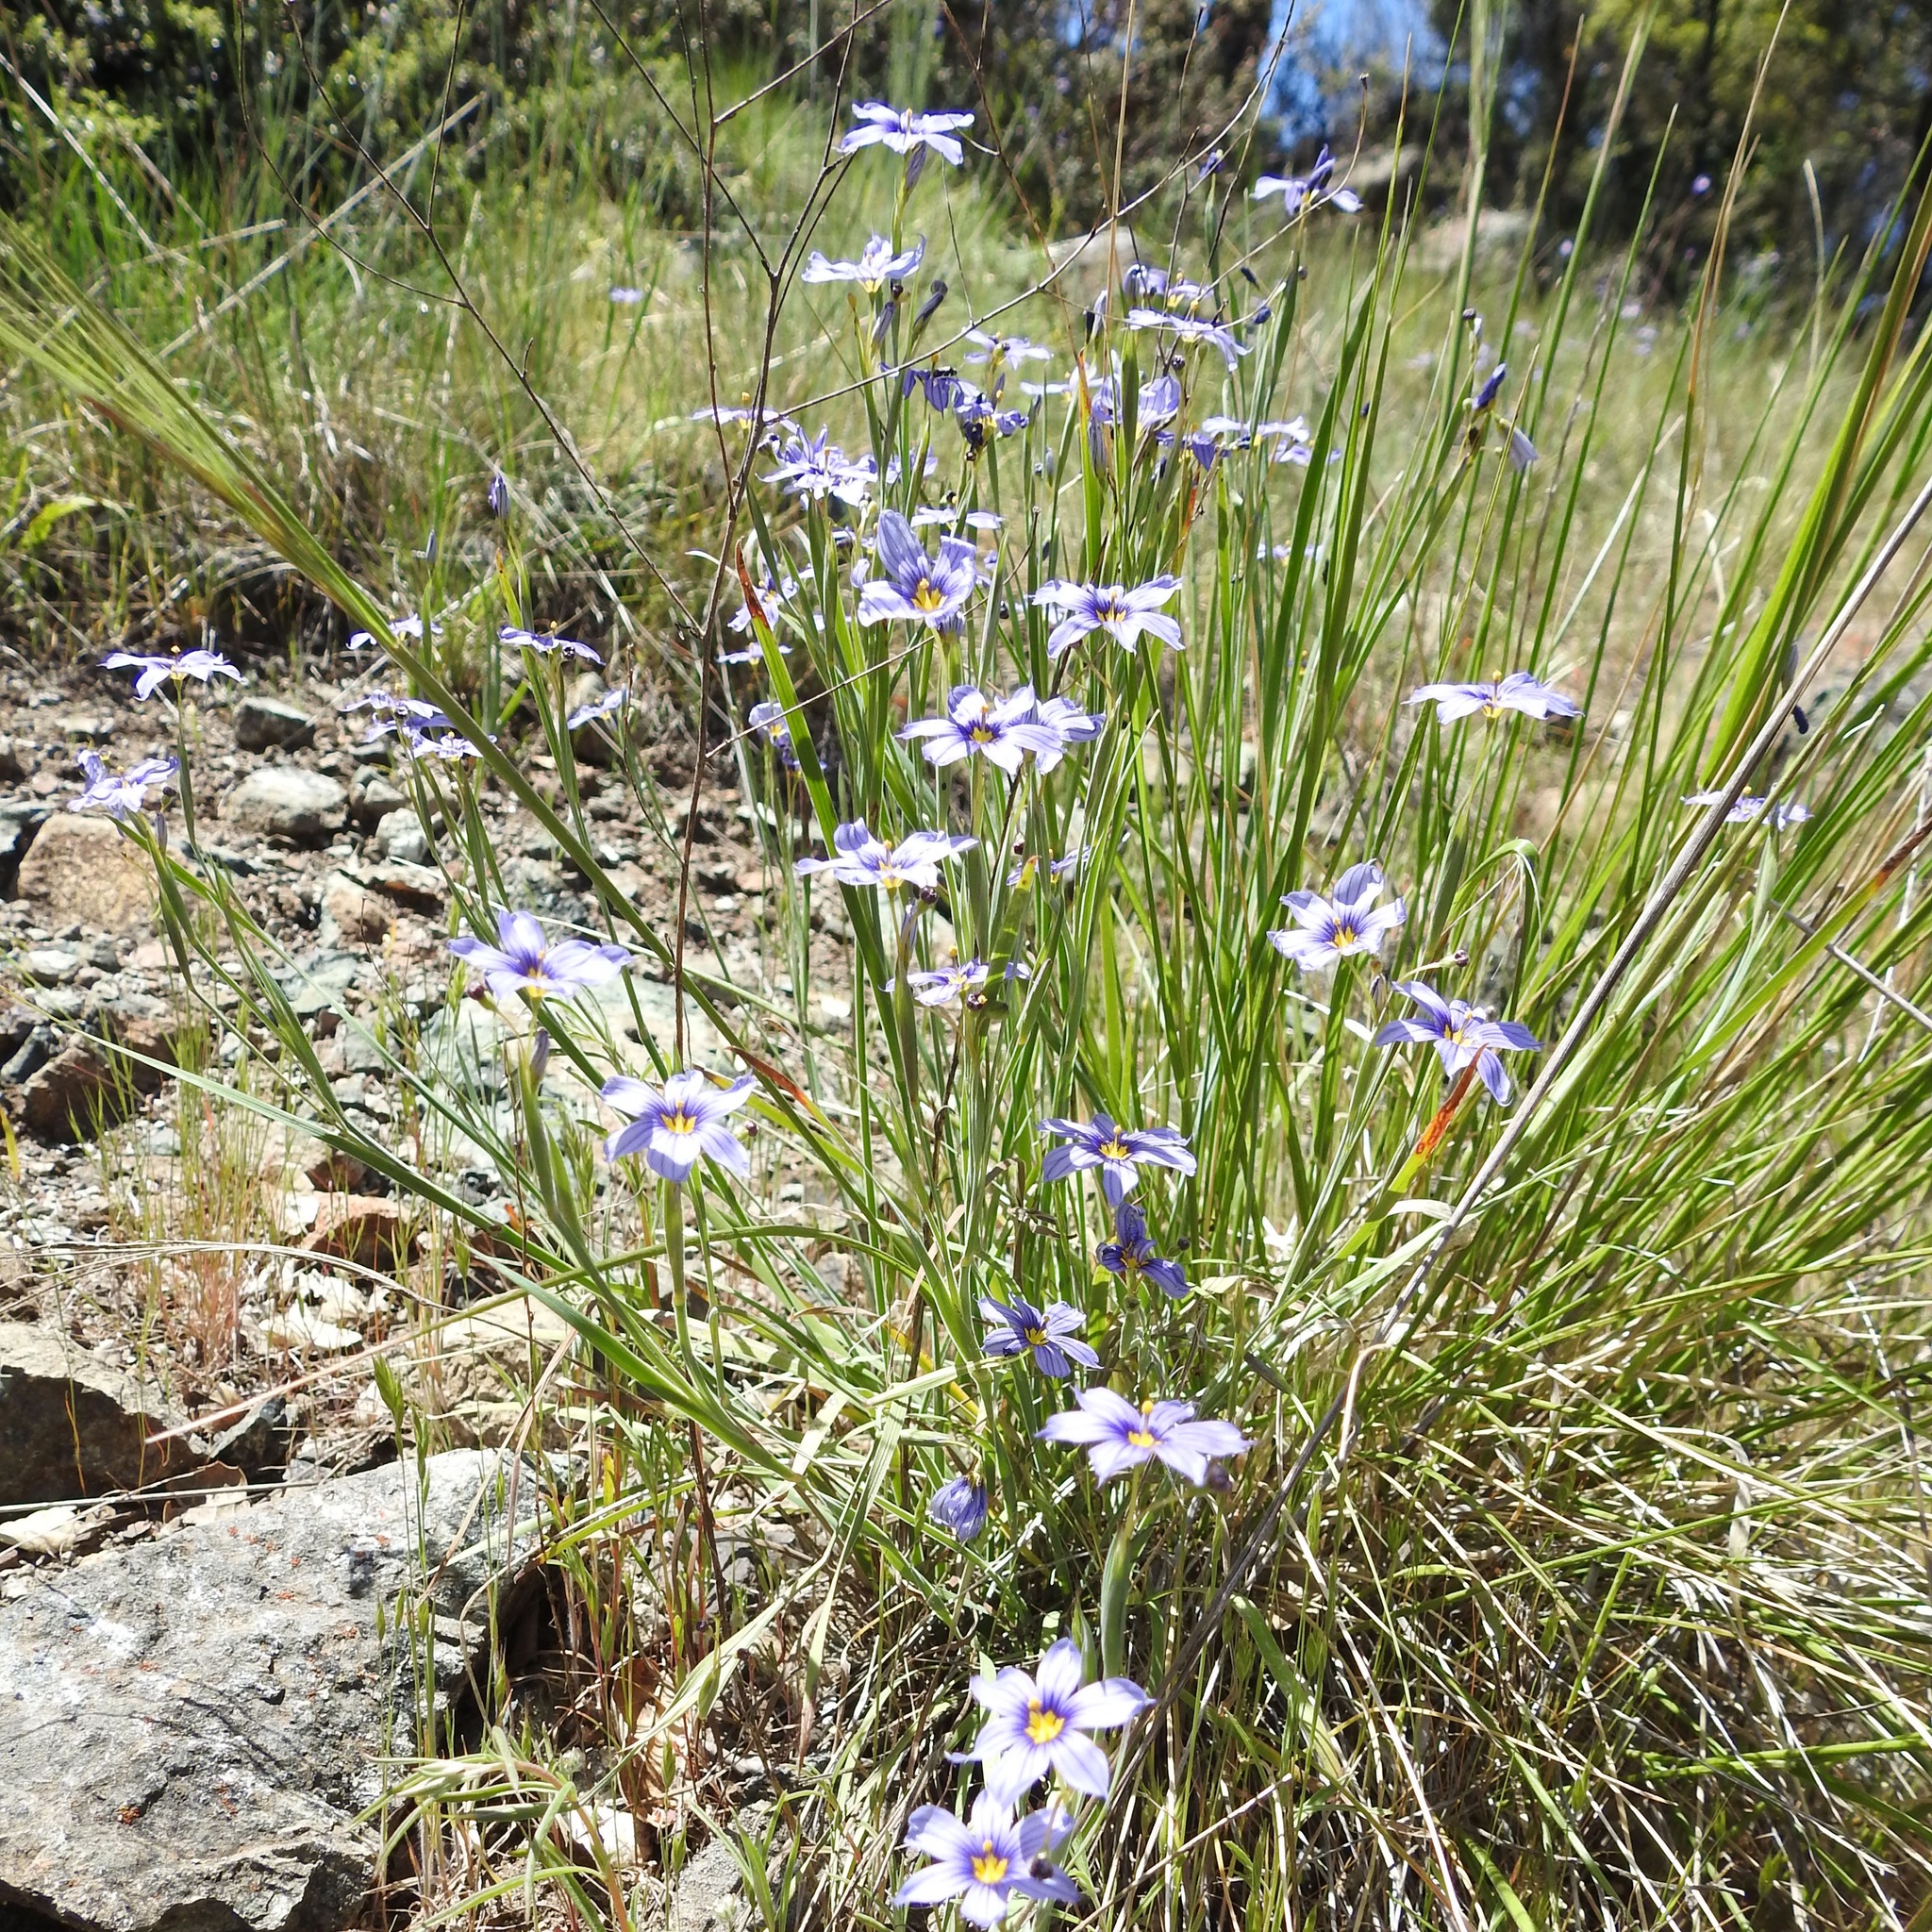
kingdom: Plantae
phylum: Tracheophyta
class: Liliopsida
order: Asparagales
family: Iridaceae
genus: Sisyrinchium
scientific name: Sisyrinchium bellum
